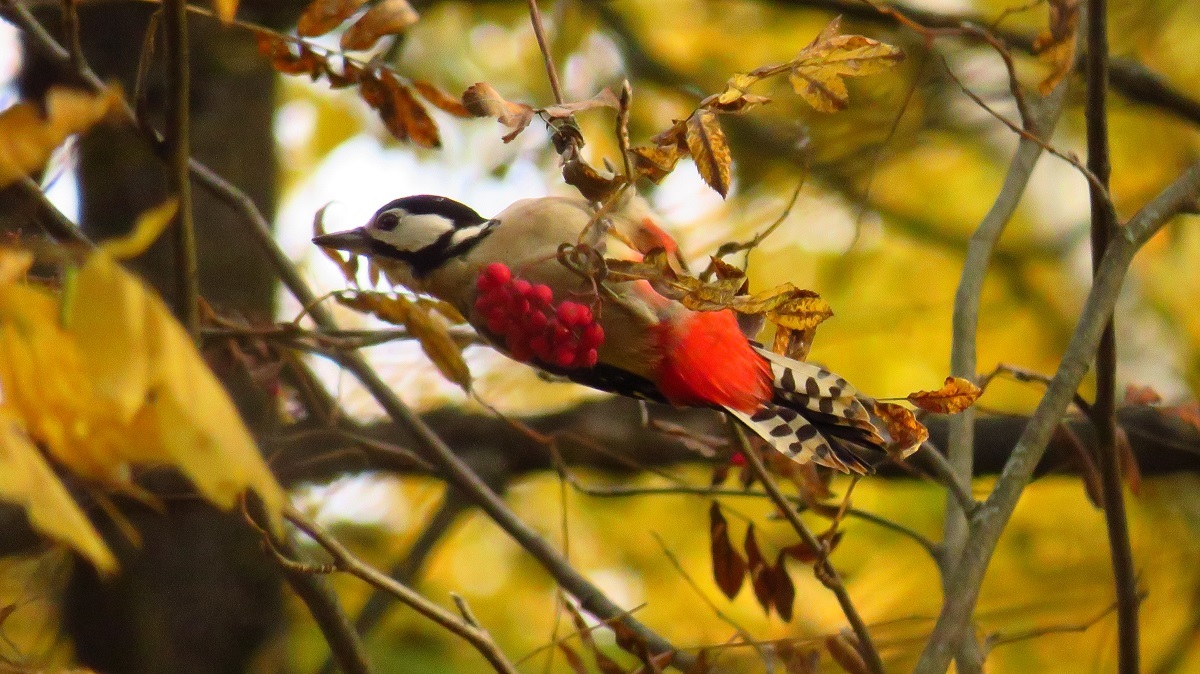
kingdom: Animalia
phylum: Chordata
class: Aves
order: Piciformes
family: Picidae
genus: Dendrocopos
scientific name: Dendrocopos major
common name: Great spotted woodpecker
